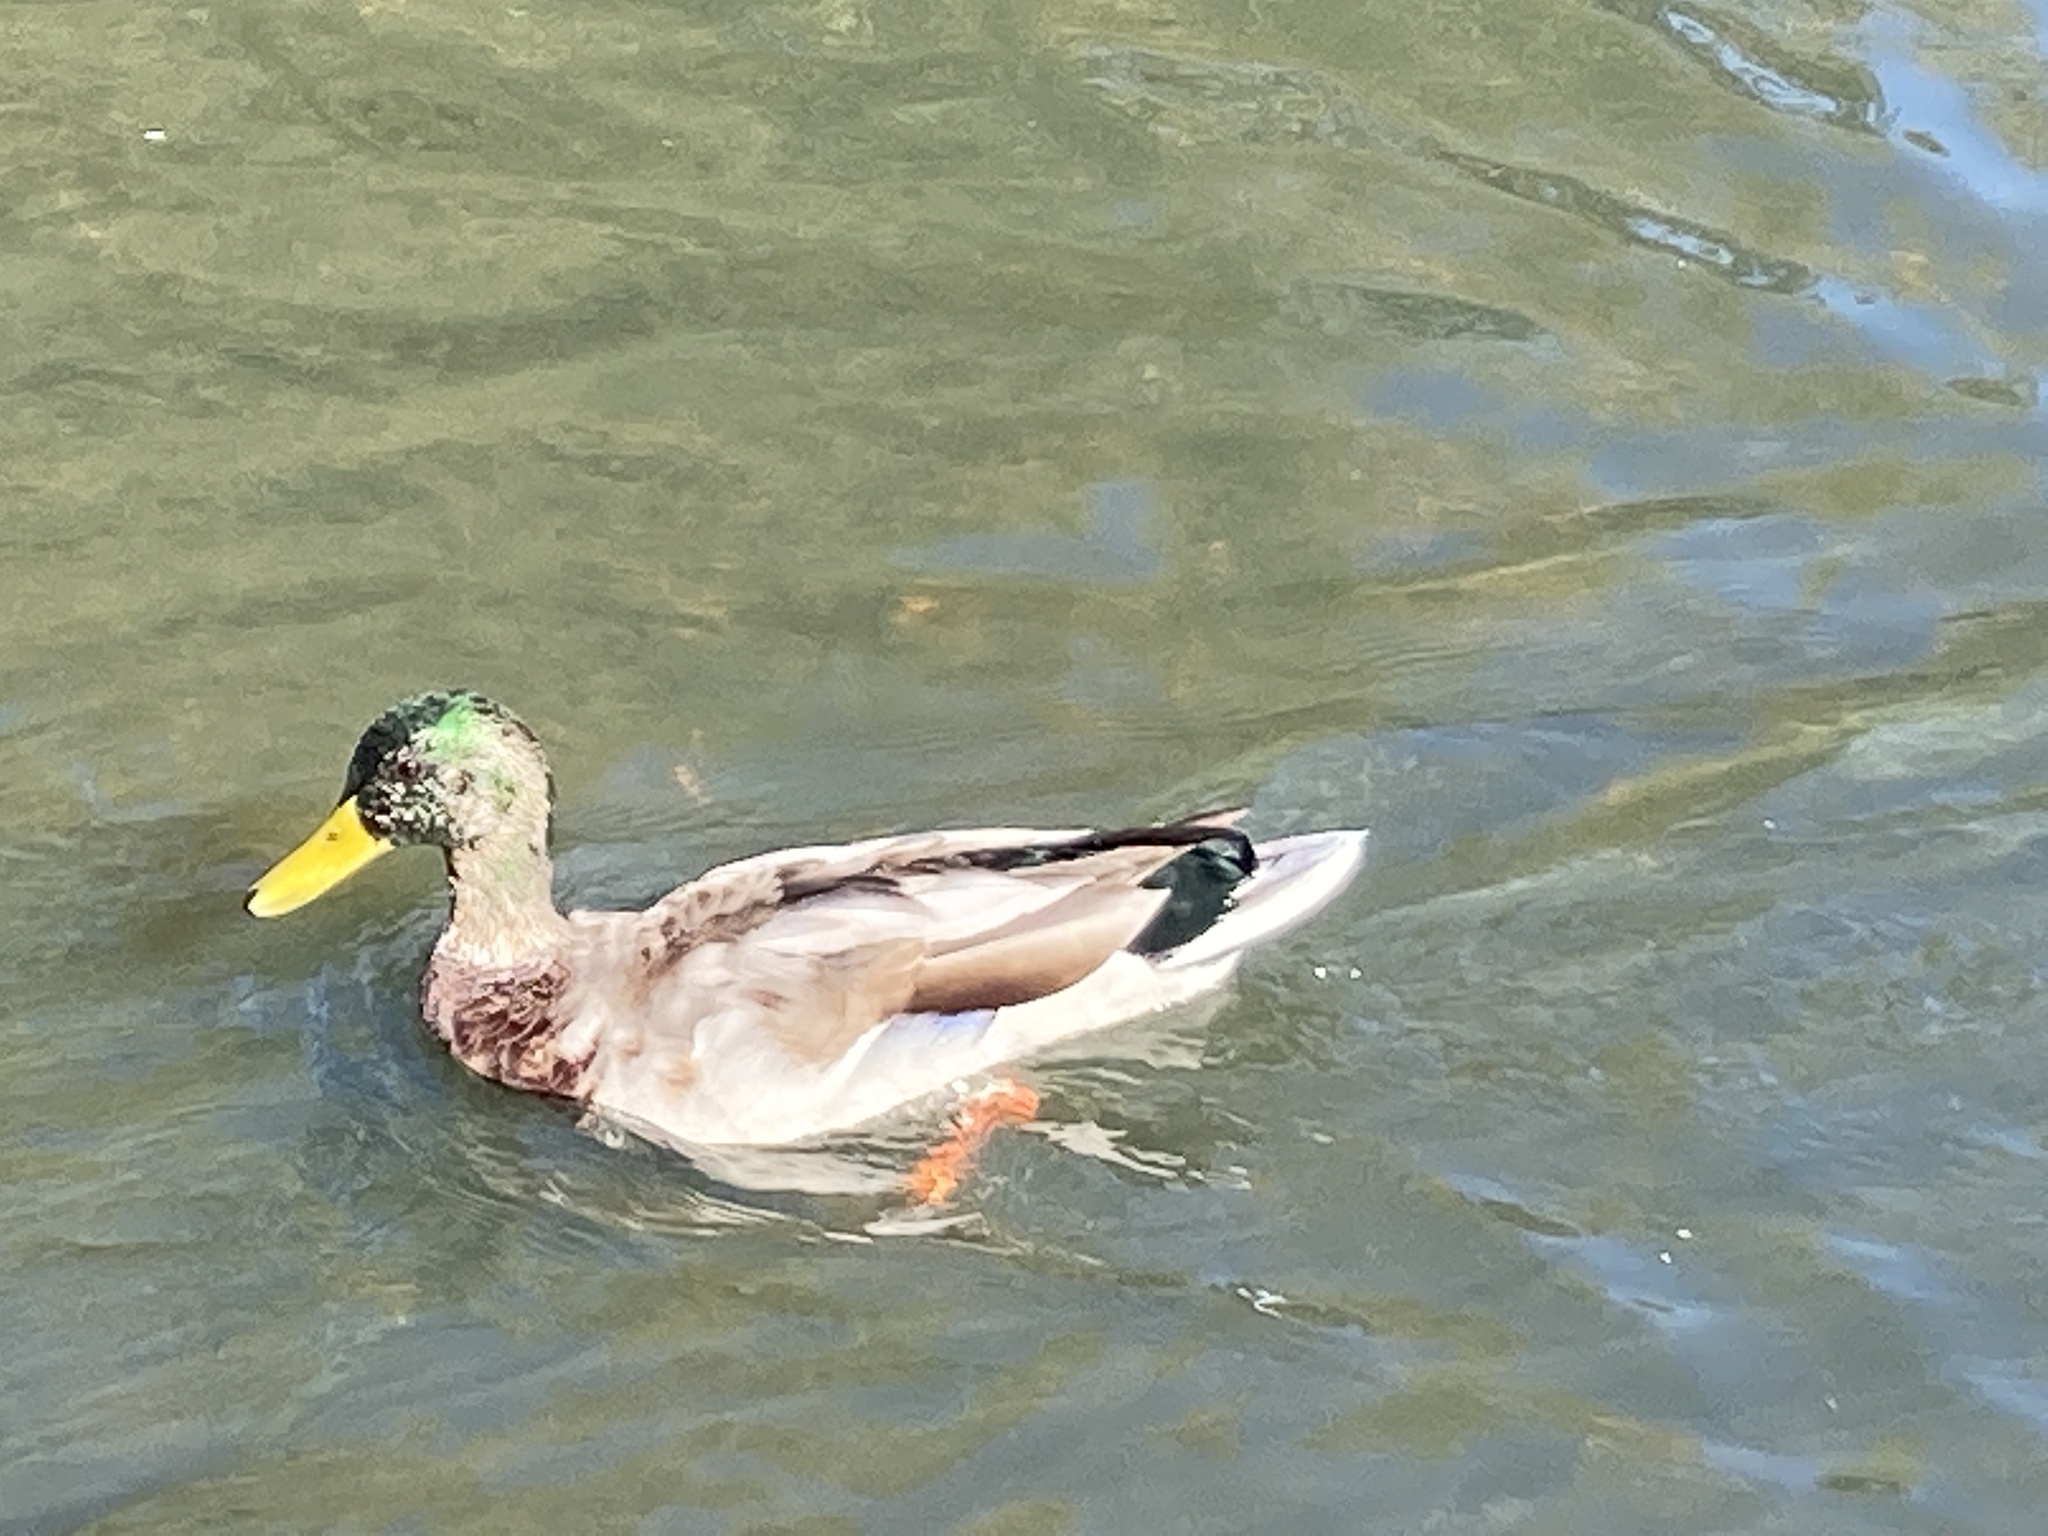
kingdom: Animalia
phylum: Chordata
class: Aves
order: Anseriformes
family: Anatidae
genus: Anas
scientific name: Anas platyrhynchos
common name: Mallard
